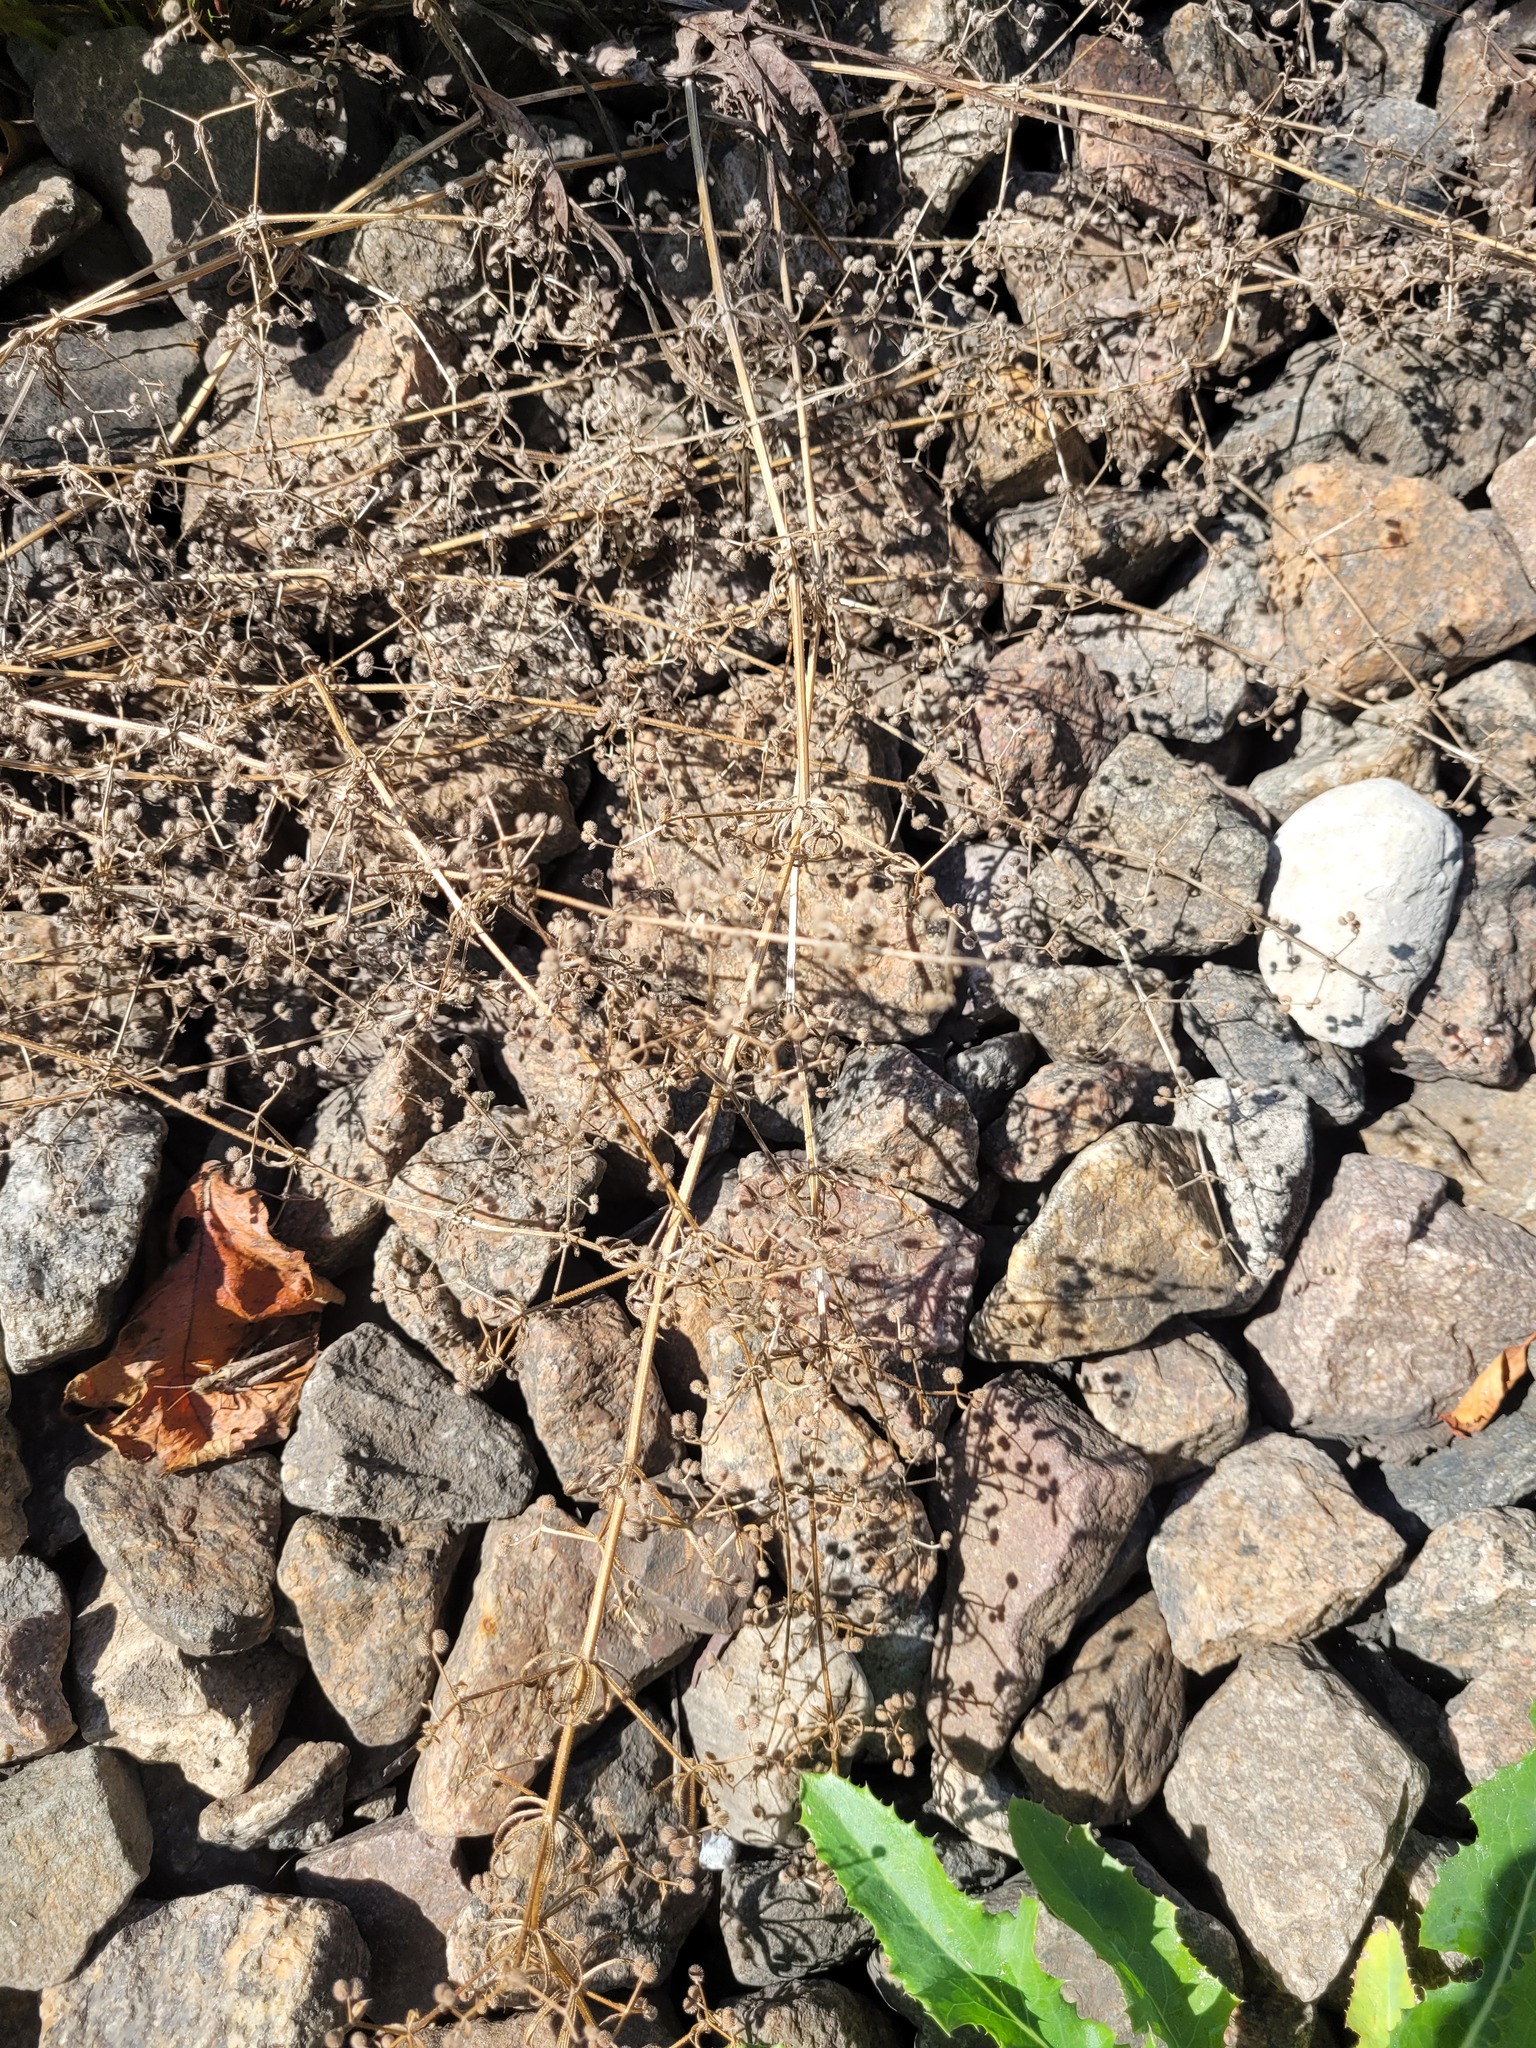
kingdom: Plantae
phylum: Tracheophyta
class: Magnoliopsida
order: Gentianales
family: Rubiaceae
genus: Galium
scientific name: Galium aparine
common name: Cleavers
